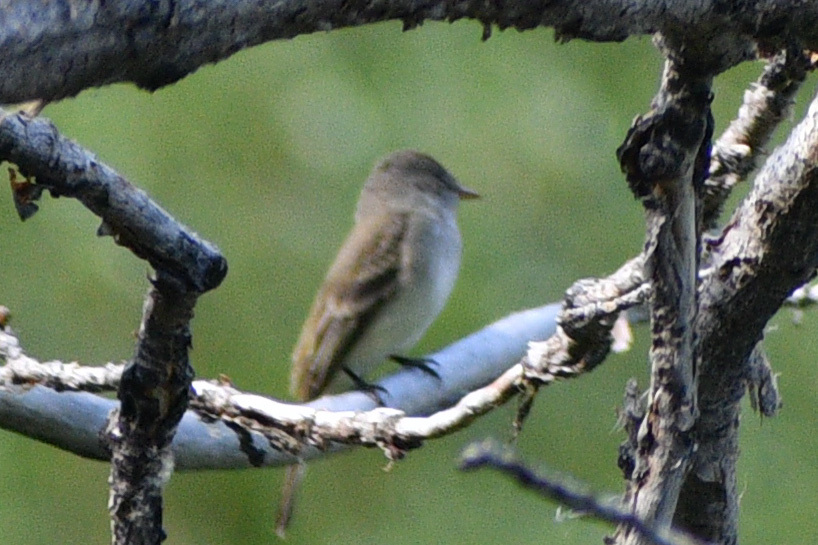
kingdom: Animalia
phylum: Chordata
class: Aves
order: Passeriformes
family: Tyrannidae
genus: Empidonax
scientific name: Empidonax traillii
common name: Willow flycatcher
